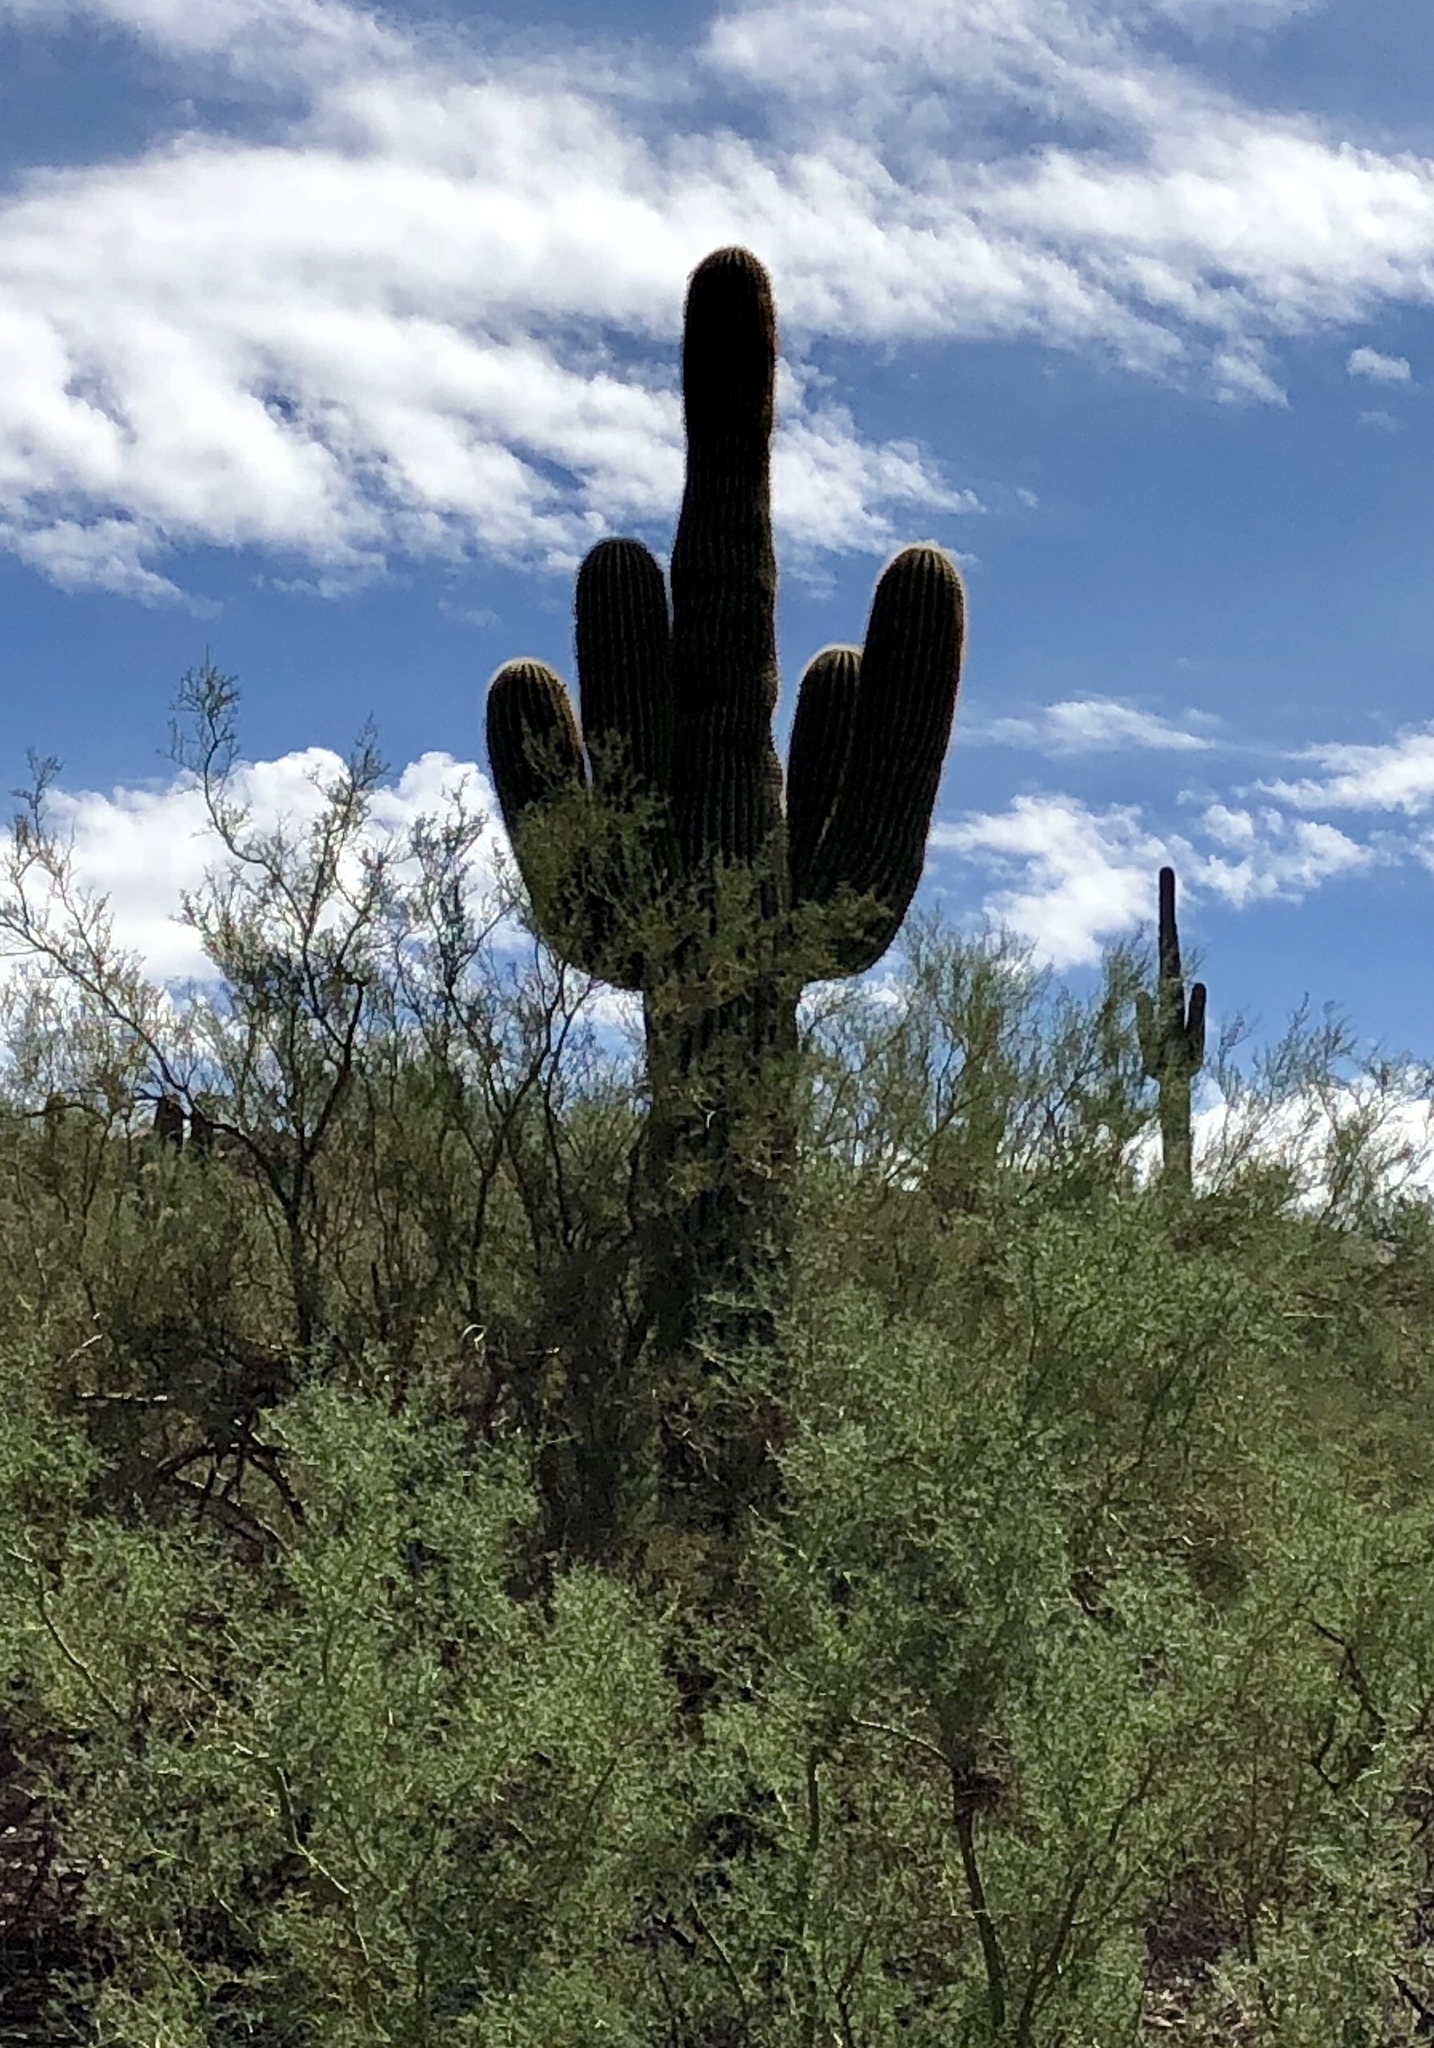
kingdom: Plantae
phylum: Tracheophyta
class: Magnoliopsida
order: Caryophyllales
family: Cactaceae
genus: Carnegiea
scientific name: Carnegiea gigantea
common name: Saguaro
